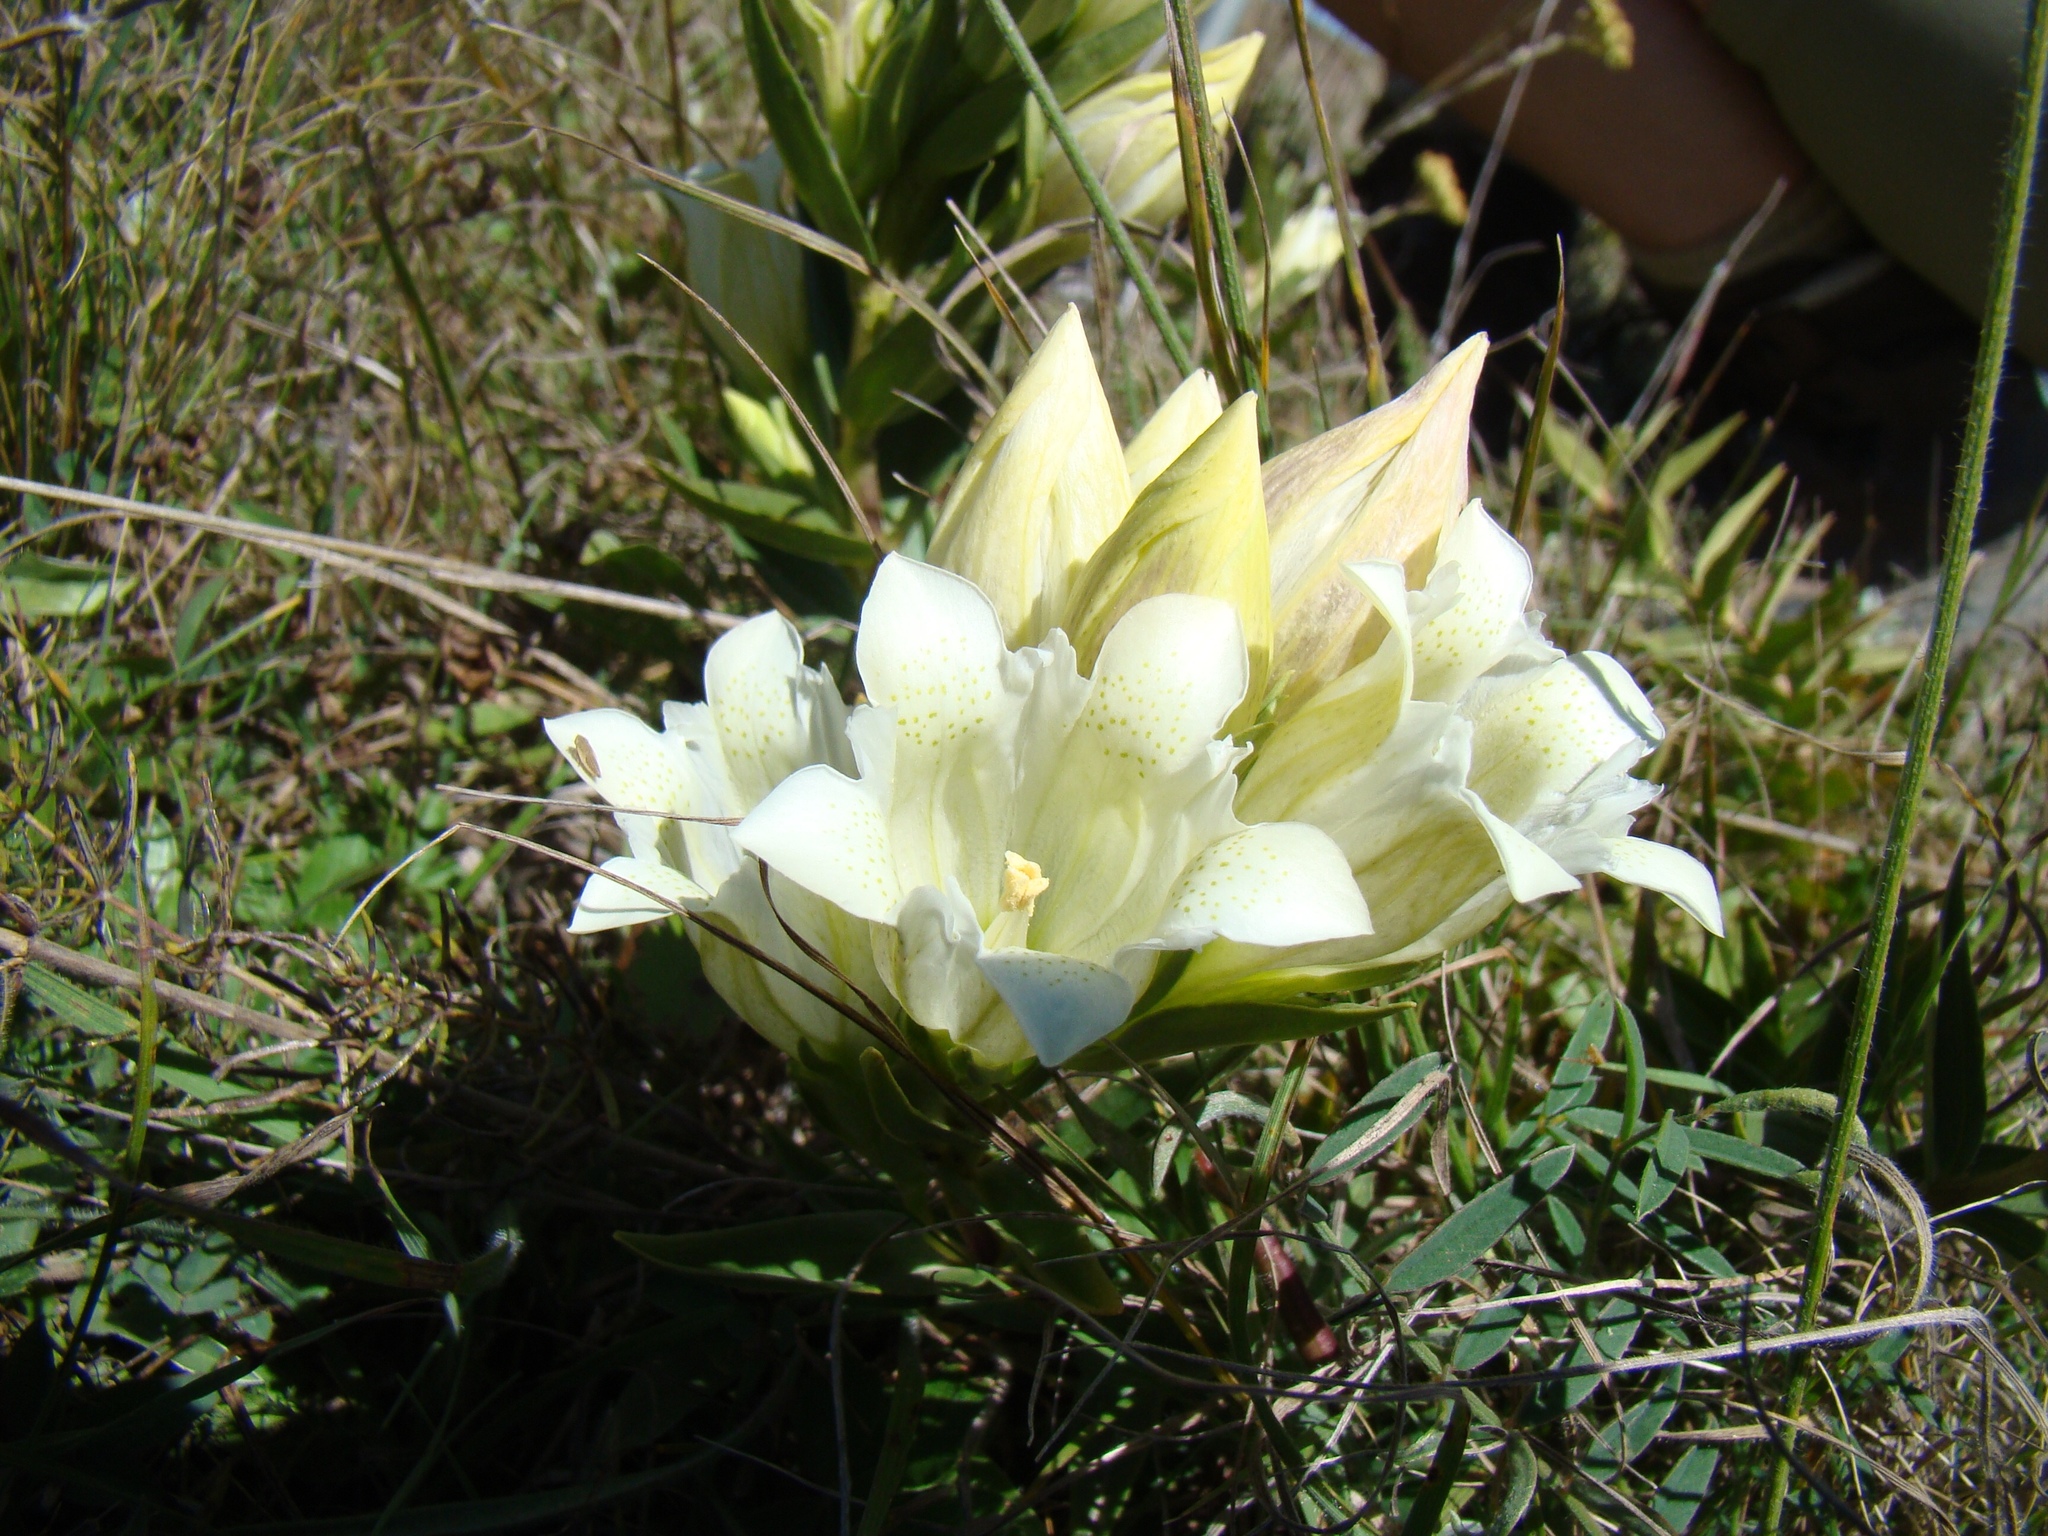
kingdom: Plantae
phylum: Tracheophyta
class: Magnoliopsida
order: Gentianales
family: Gentianaceae
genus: Gentiana
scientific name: Gentiana gelida
